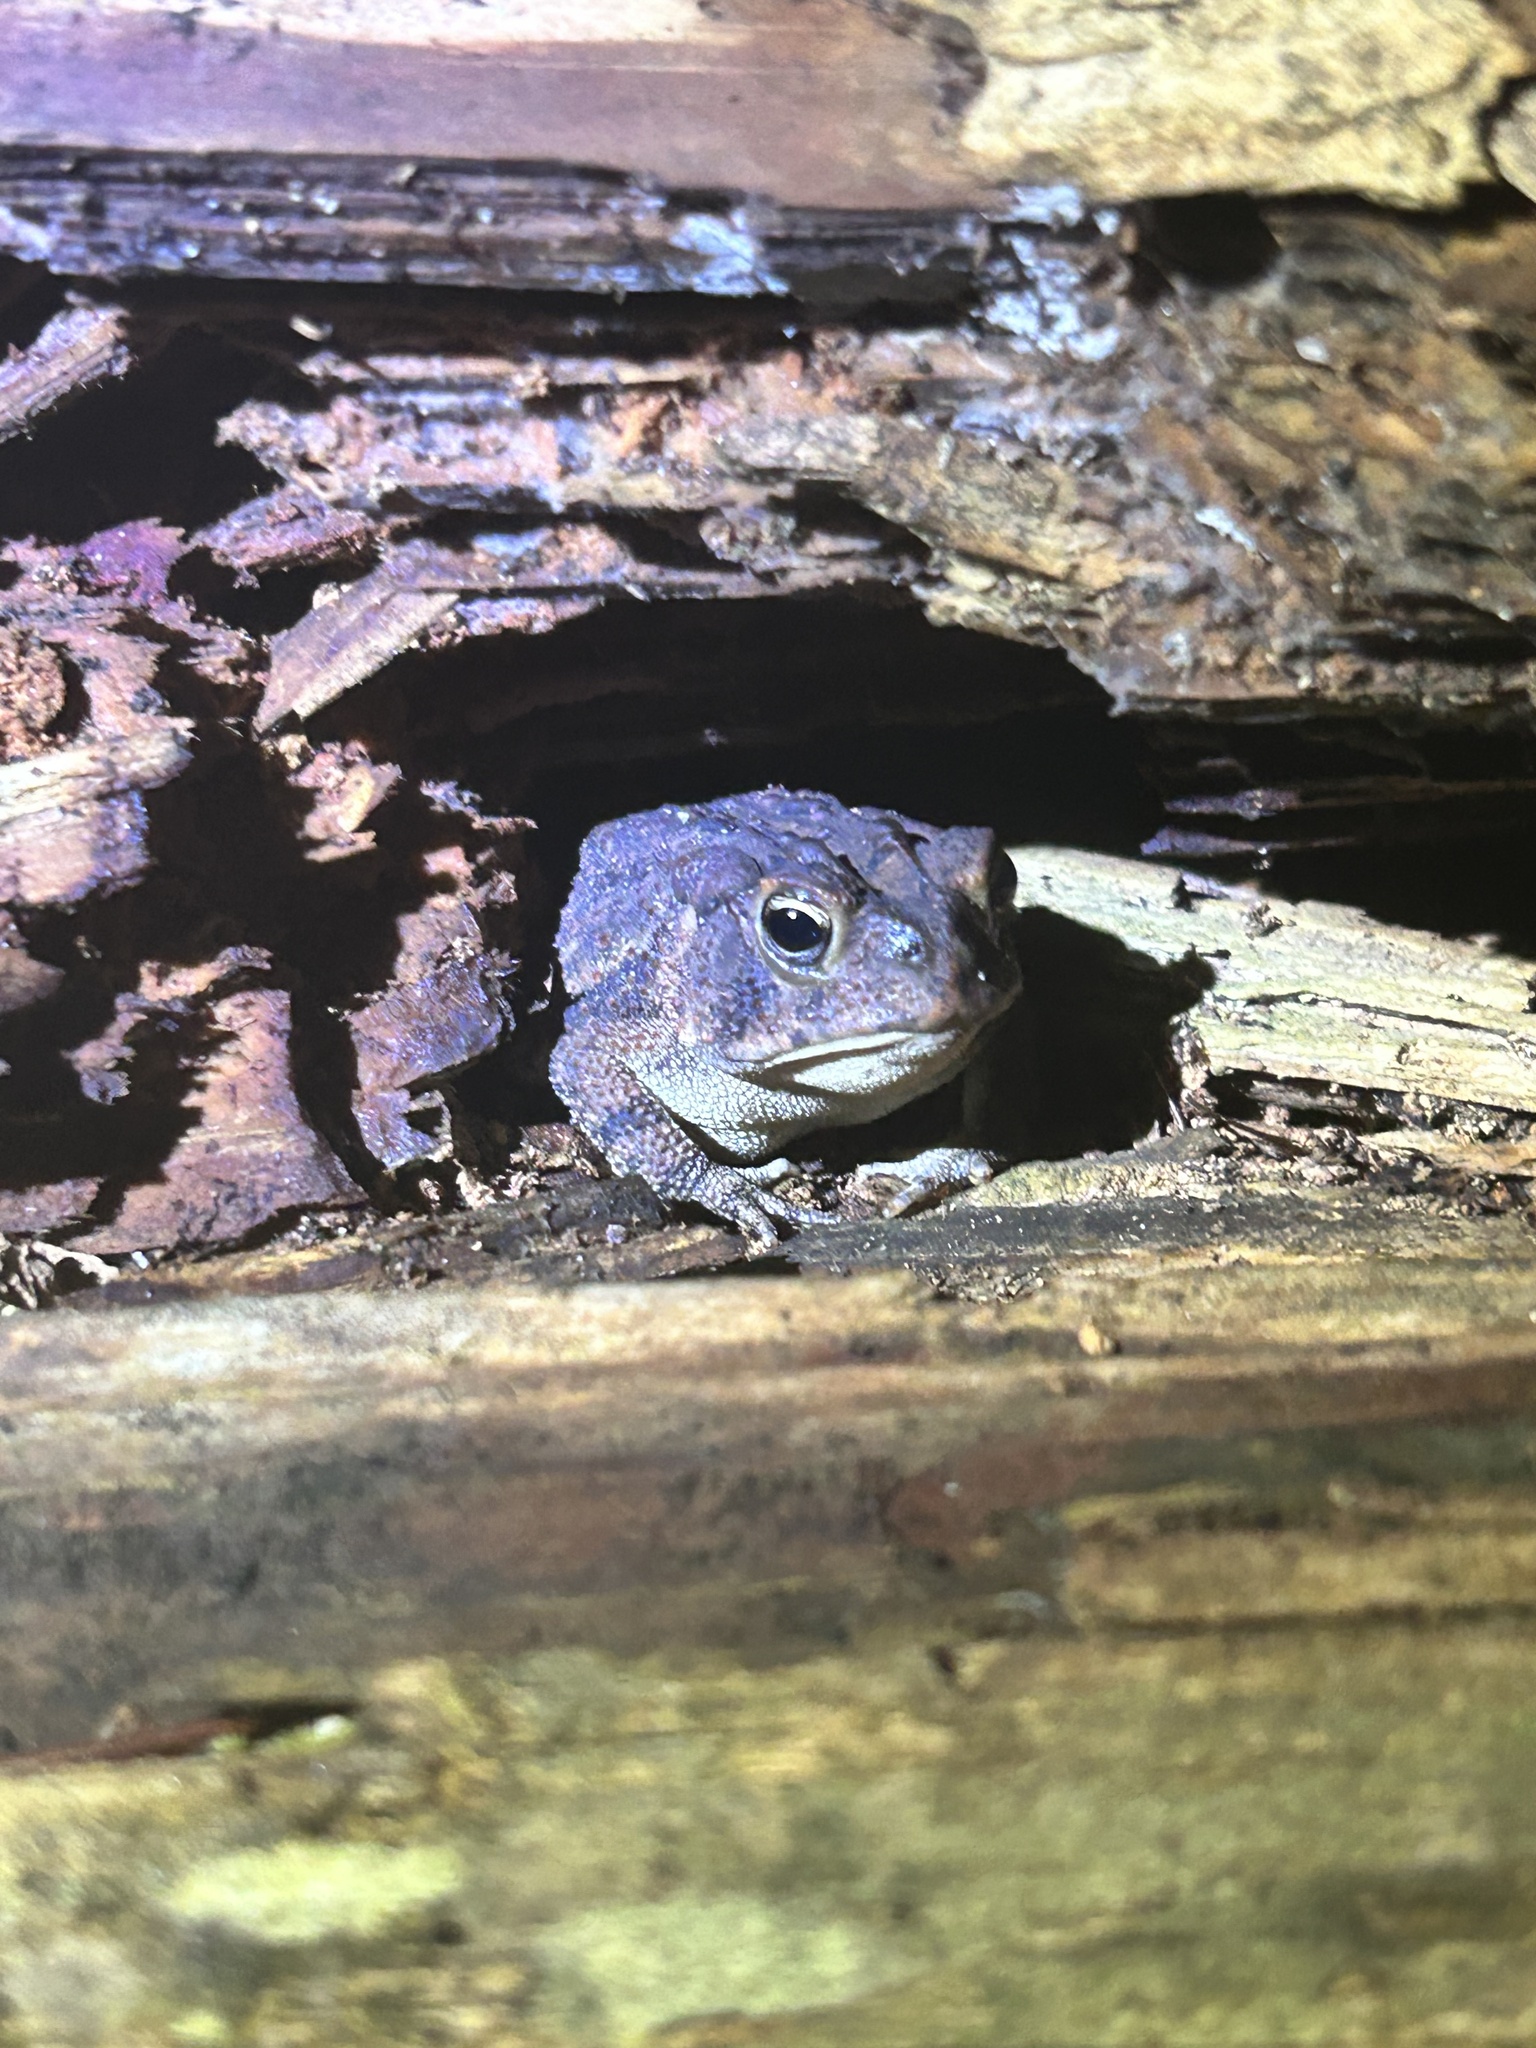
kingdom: Animalia
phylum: Chordata
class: Amphibia
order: Anura
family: Bufonidae
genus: Anaxyrus
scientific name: Anaxyrus terrestris
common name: Southern toad
